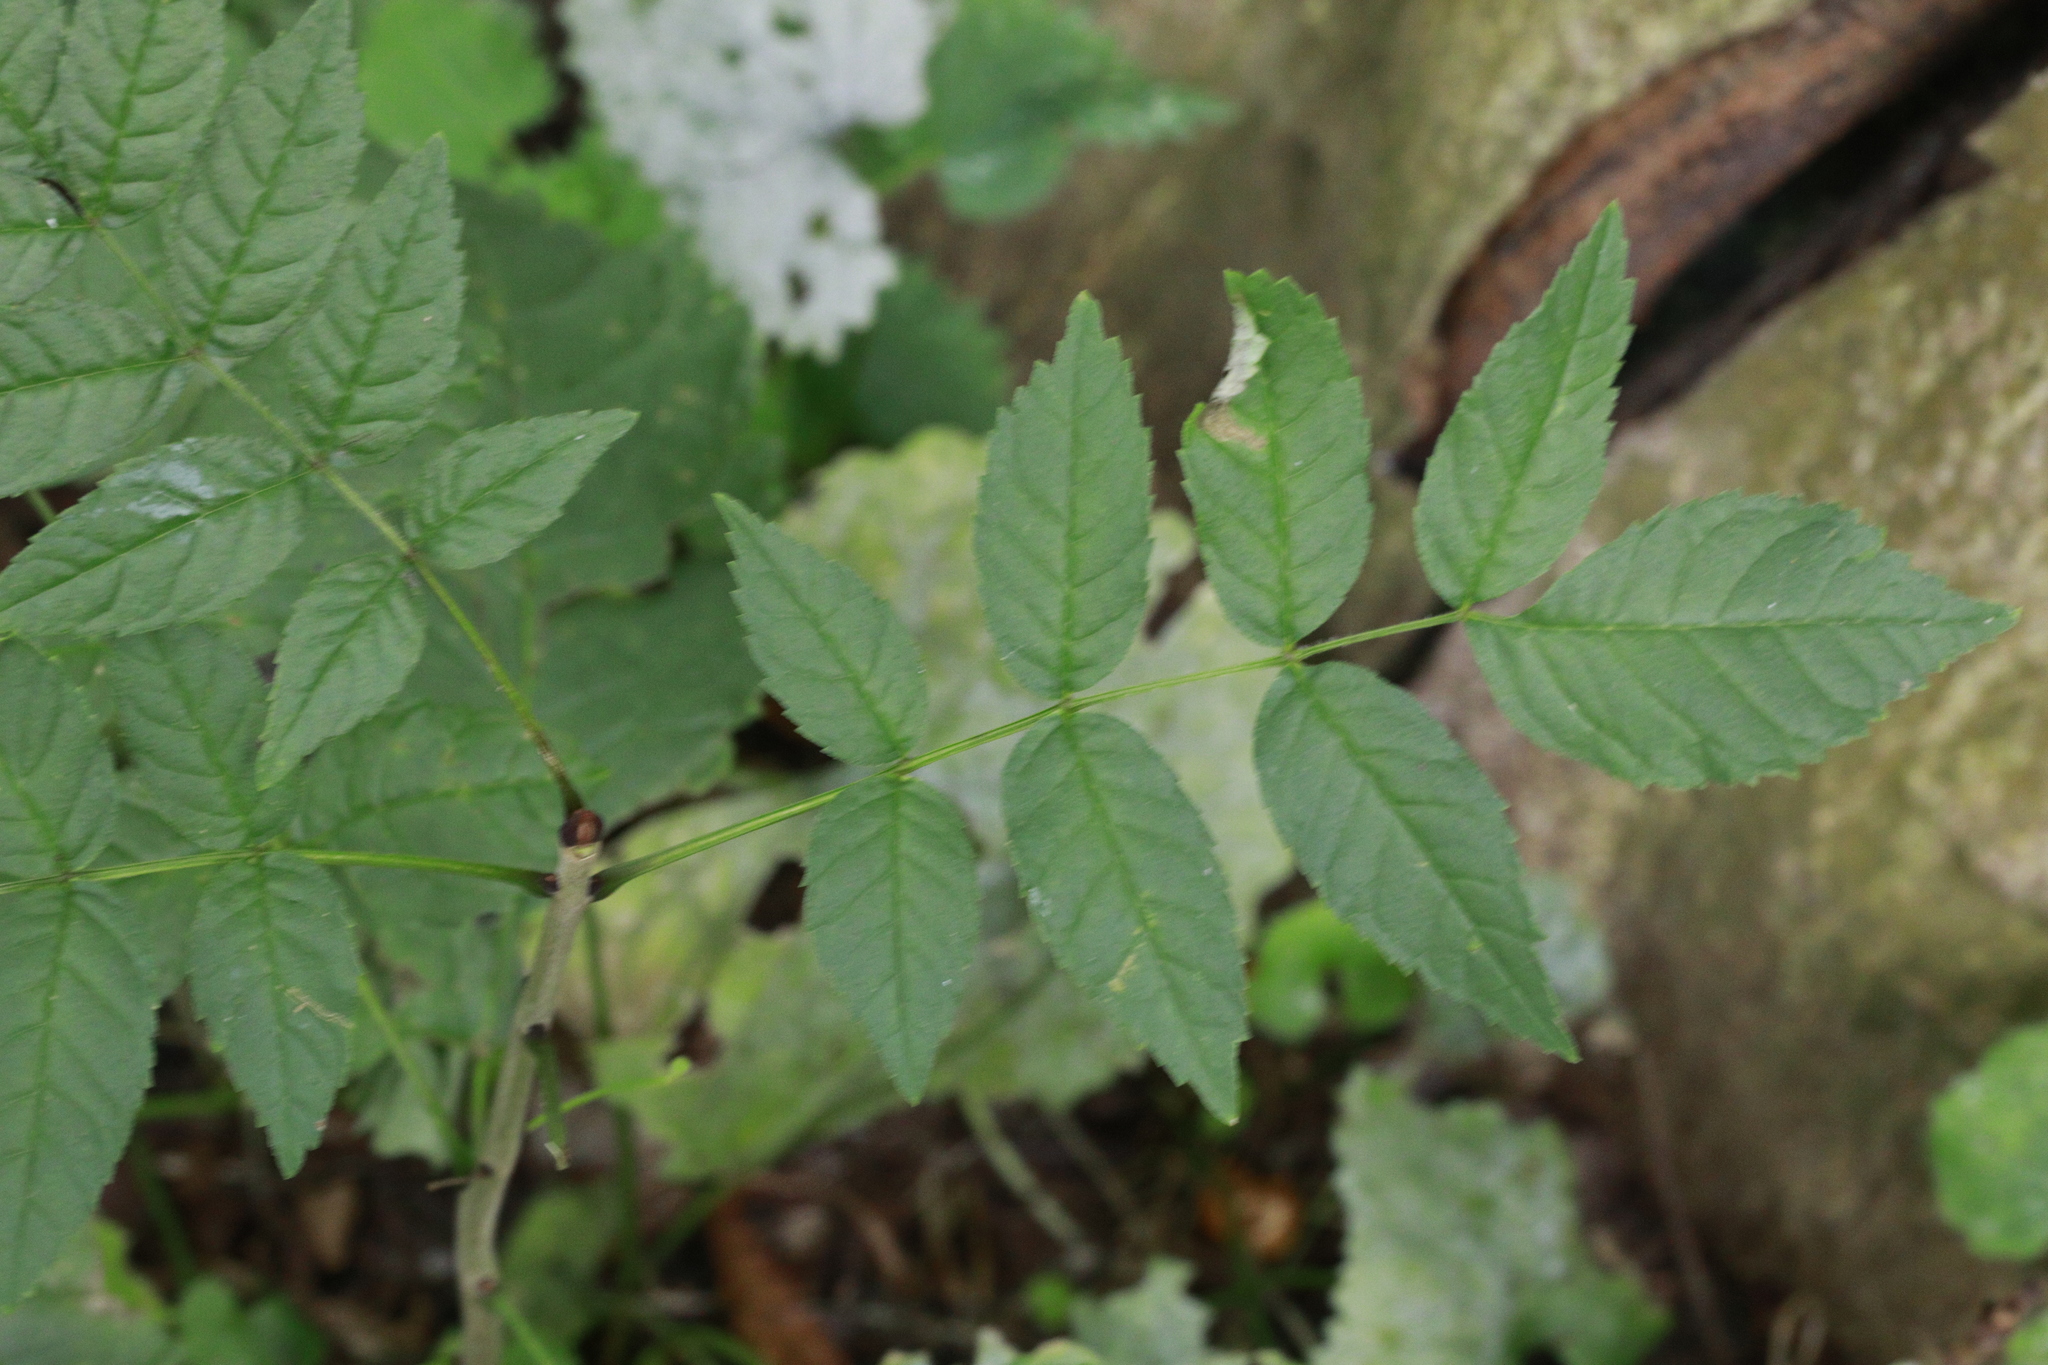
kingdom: Plantae
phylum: Tracheophyta
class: Magnoliopsida
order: Lamiales
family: Oleaceae
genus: Fraxinus
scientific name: Fraxinus excelsior
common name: European ash
